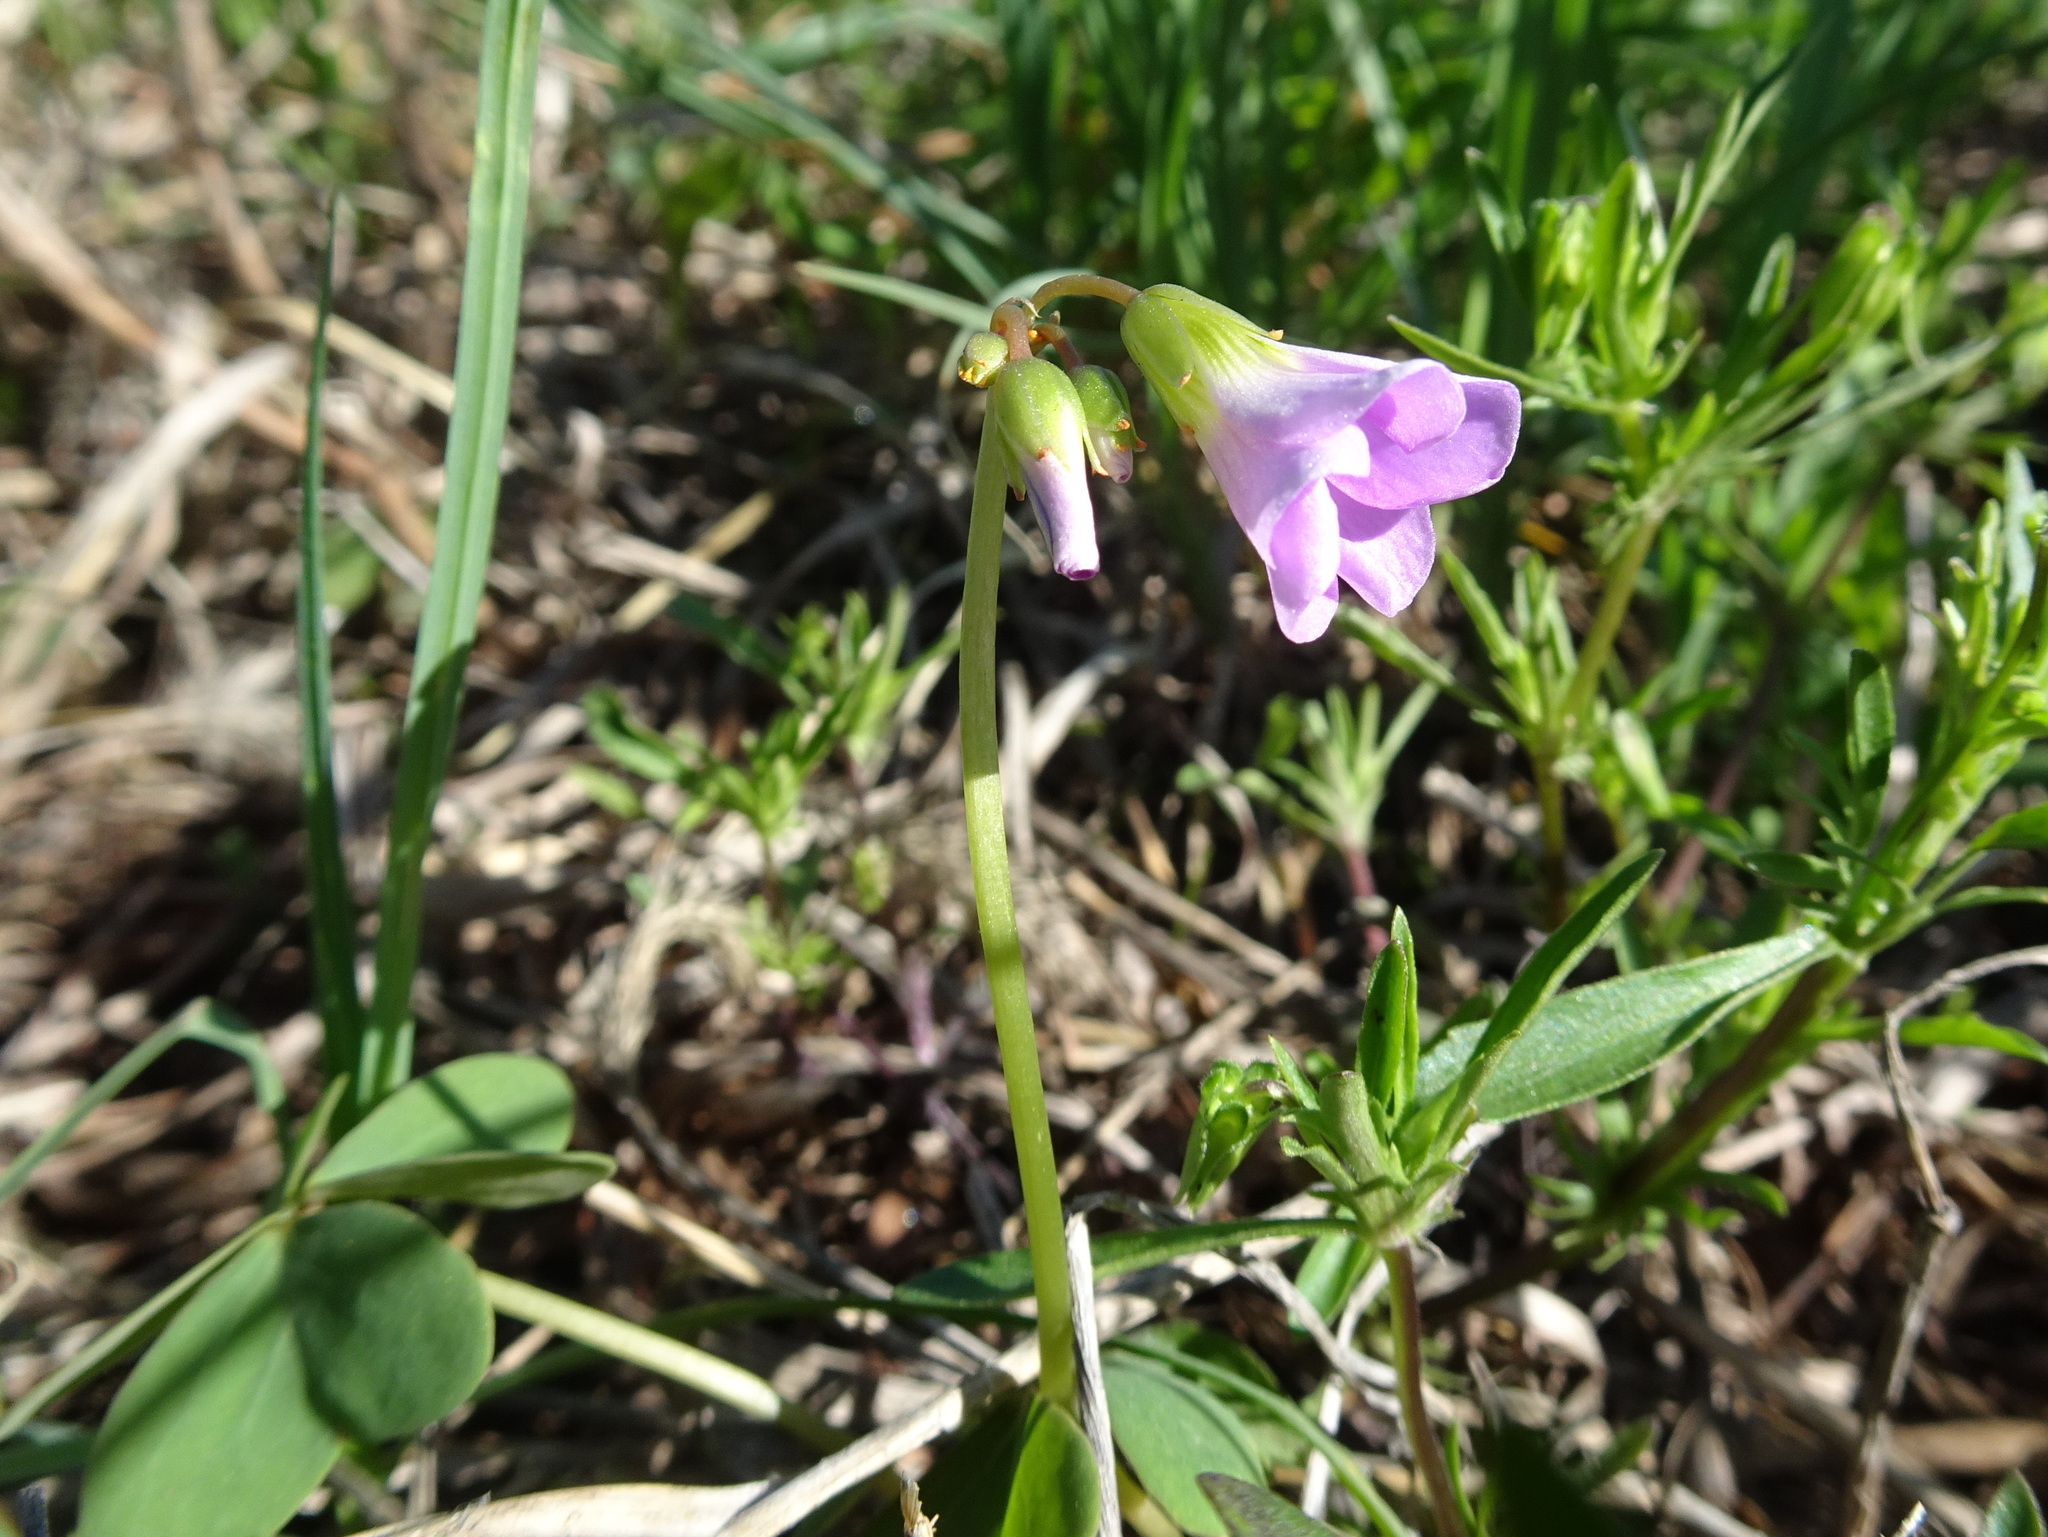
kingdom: Plantae
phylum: Tracheophyta
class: Magnoliopsida
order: Oxalidales
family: Oxalidaceae
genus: Oxalis
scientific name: Oxalis violacea
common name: Violet wood-sorrel
